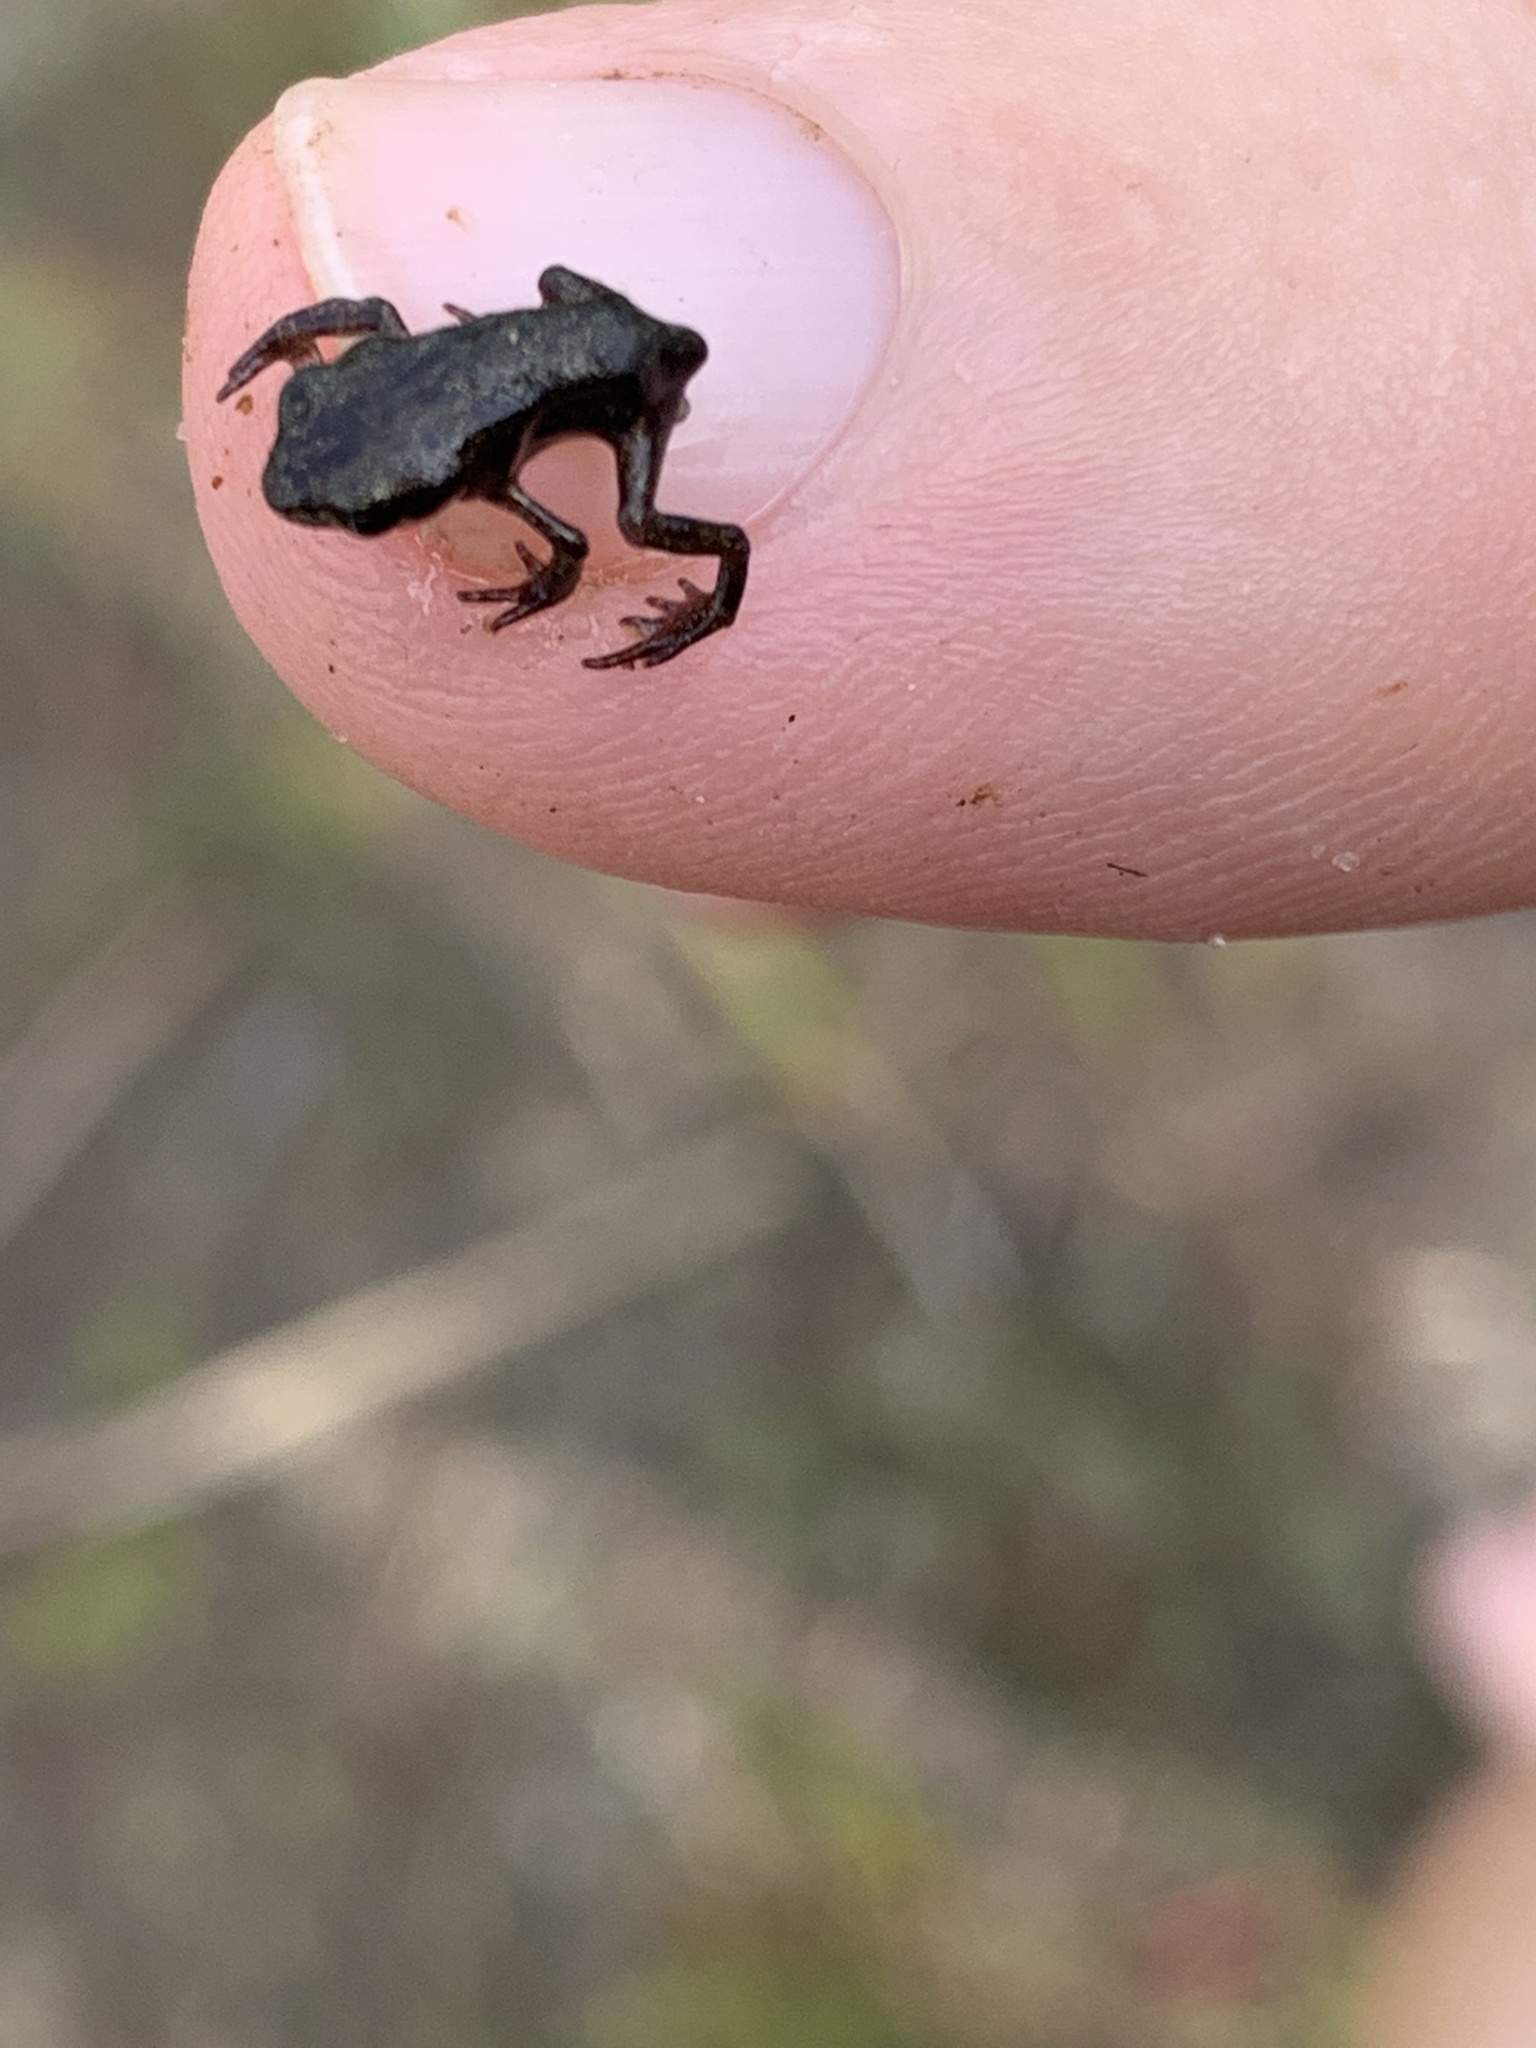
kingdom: Animalia
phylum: Chordata
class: Amphibia
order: Anura
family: Bufonidae
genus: Bufo
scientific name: Bufo bufo
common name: Common toad
